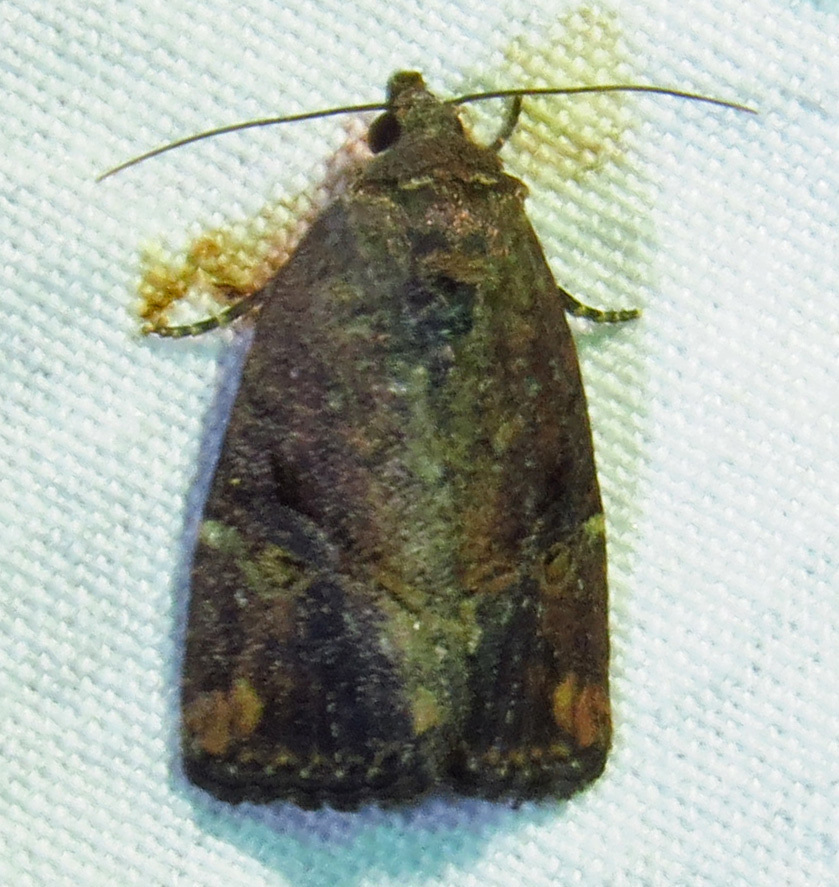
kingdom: Animalia
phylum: Arthropoda
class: Insecta
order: Lepidoptera
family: Noctuidae
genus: Elaphria
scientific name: Elaphria versicolor
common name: Fir harlequin
